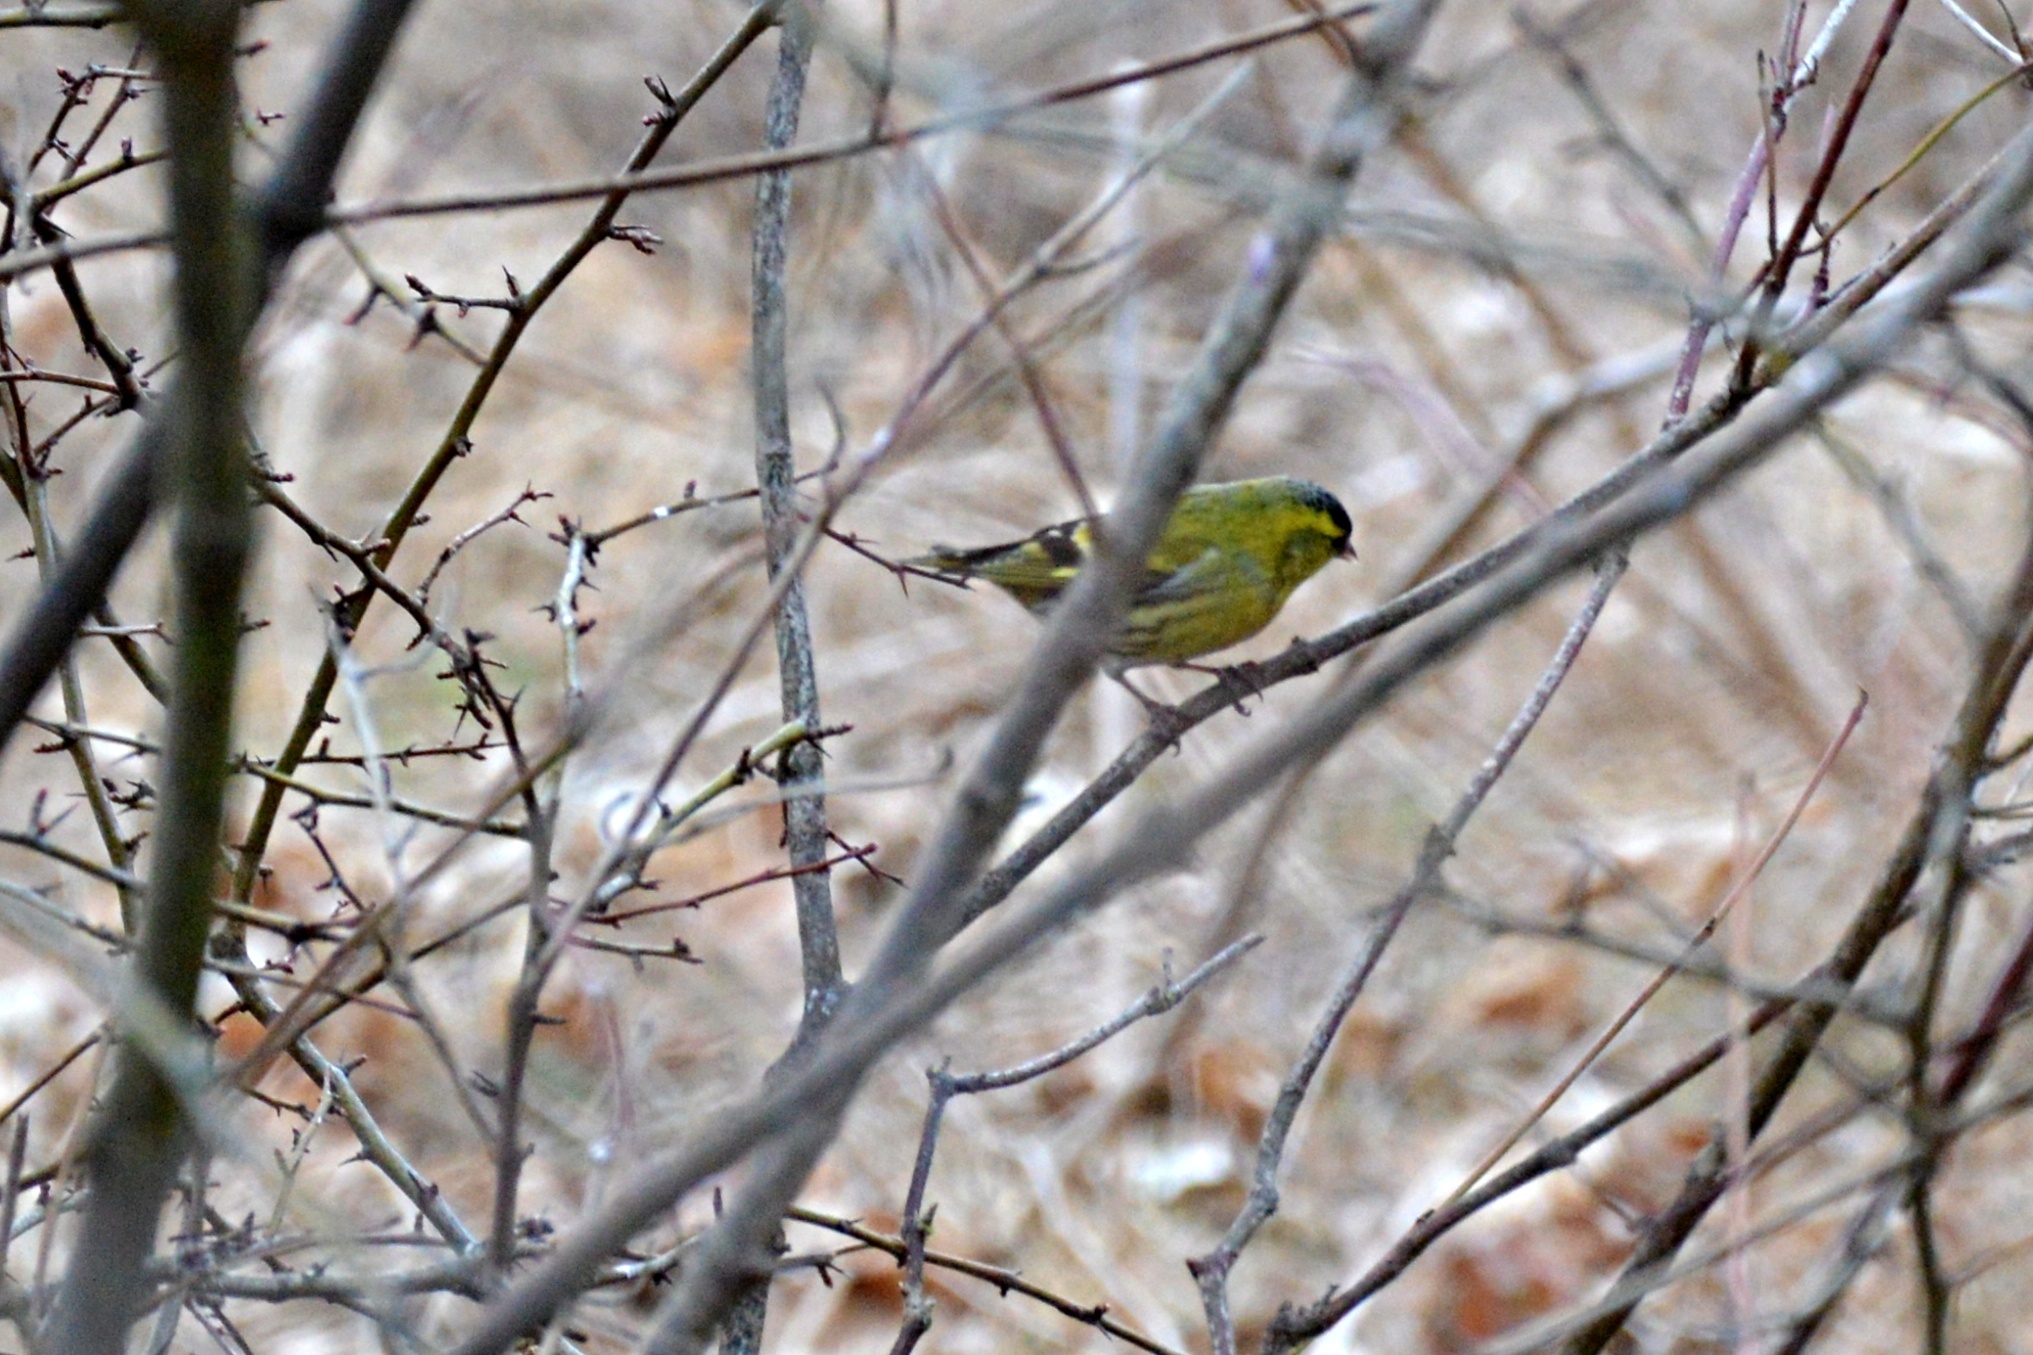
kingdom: Animalia
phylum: Chordata
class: Aves
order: Passeriformes
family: Fringillidae
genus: Spinus
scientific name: Spinus spinus
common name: Eurasian siskin
